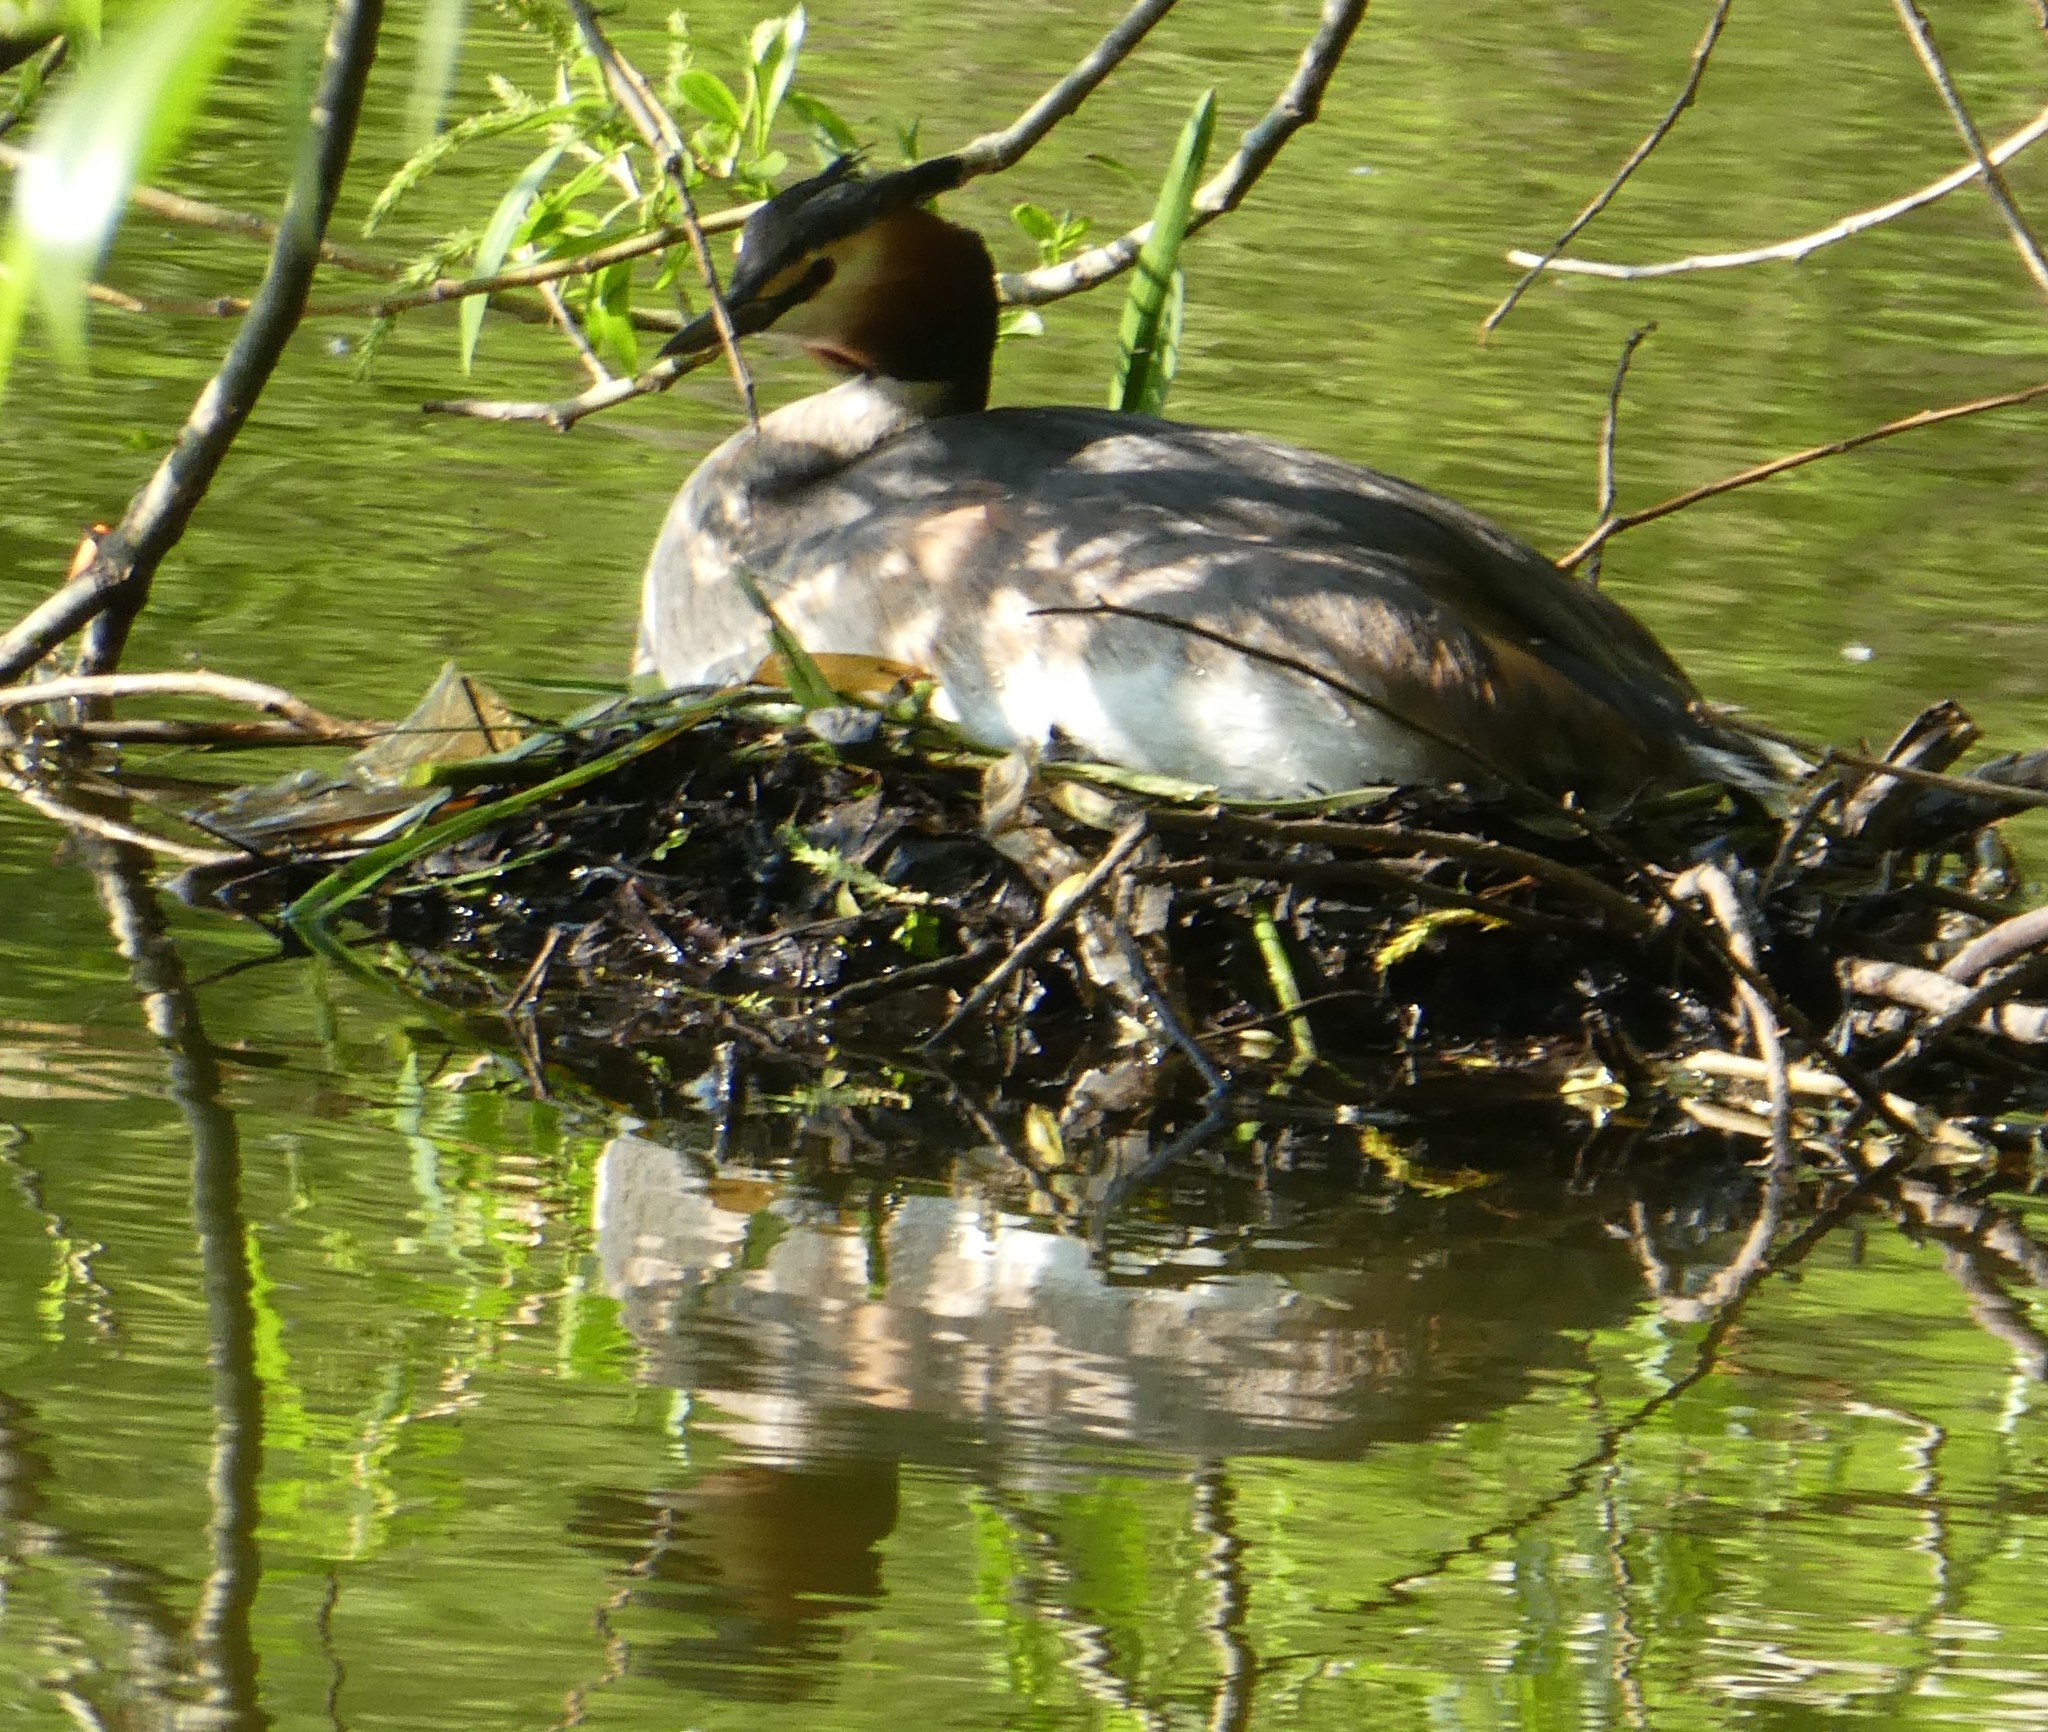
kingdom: Animalia
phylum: Chordata
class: Aves
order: Podicipediformes
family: Podicipedidae
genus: Podiceps
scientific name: Podiceps cristatus
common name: Great crested grebe
